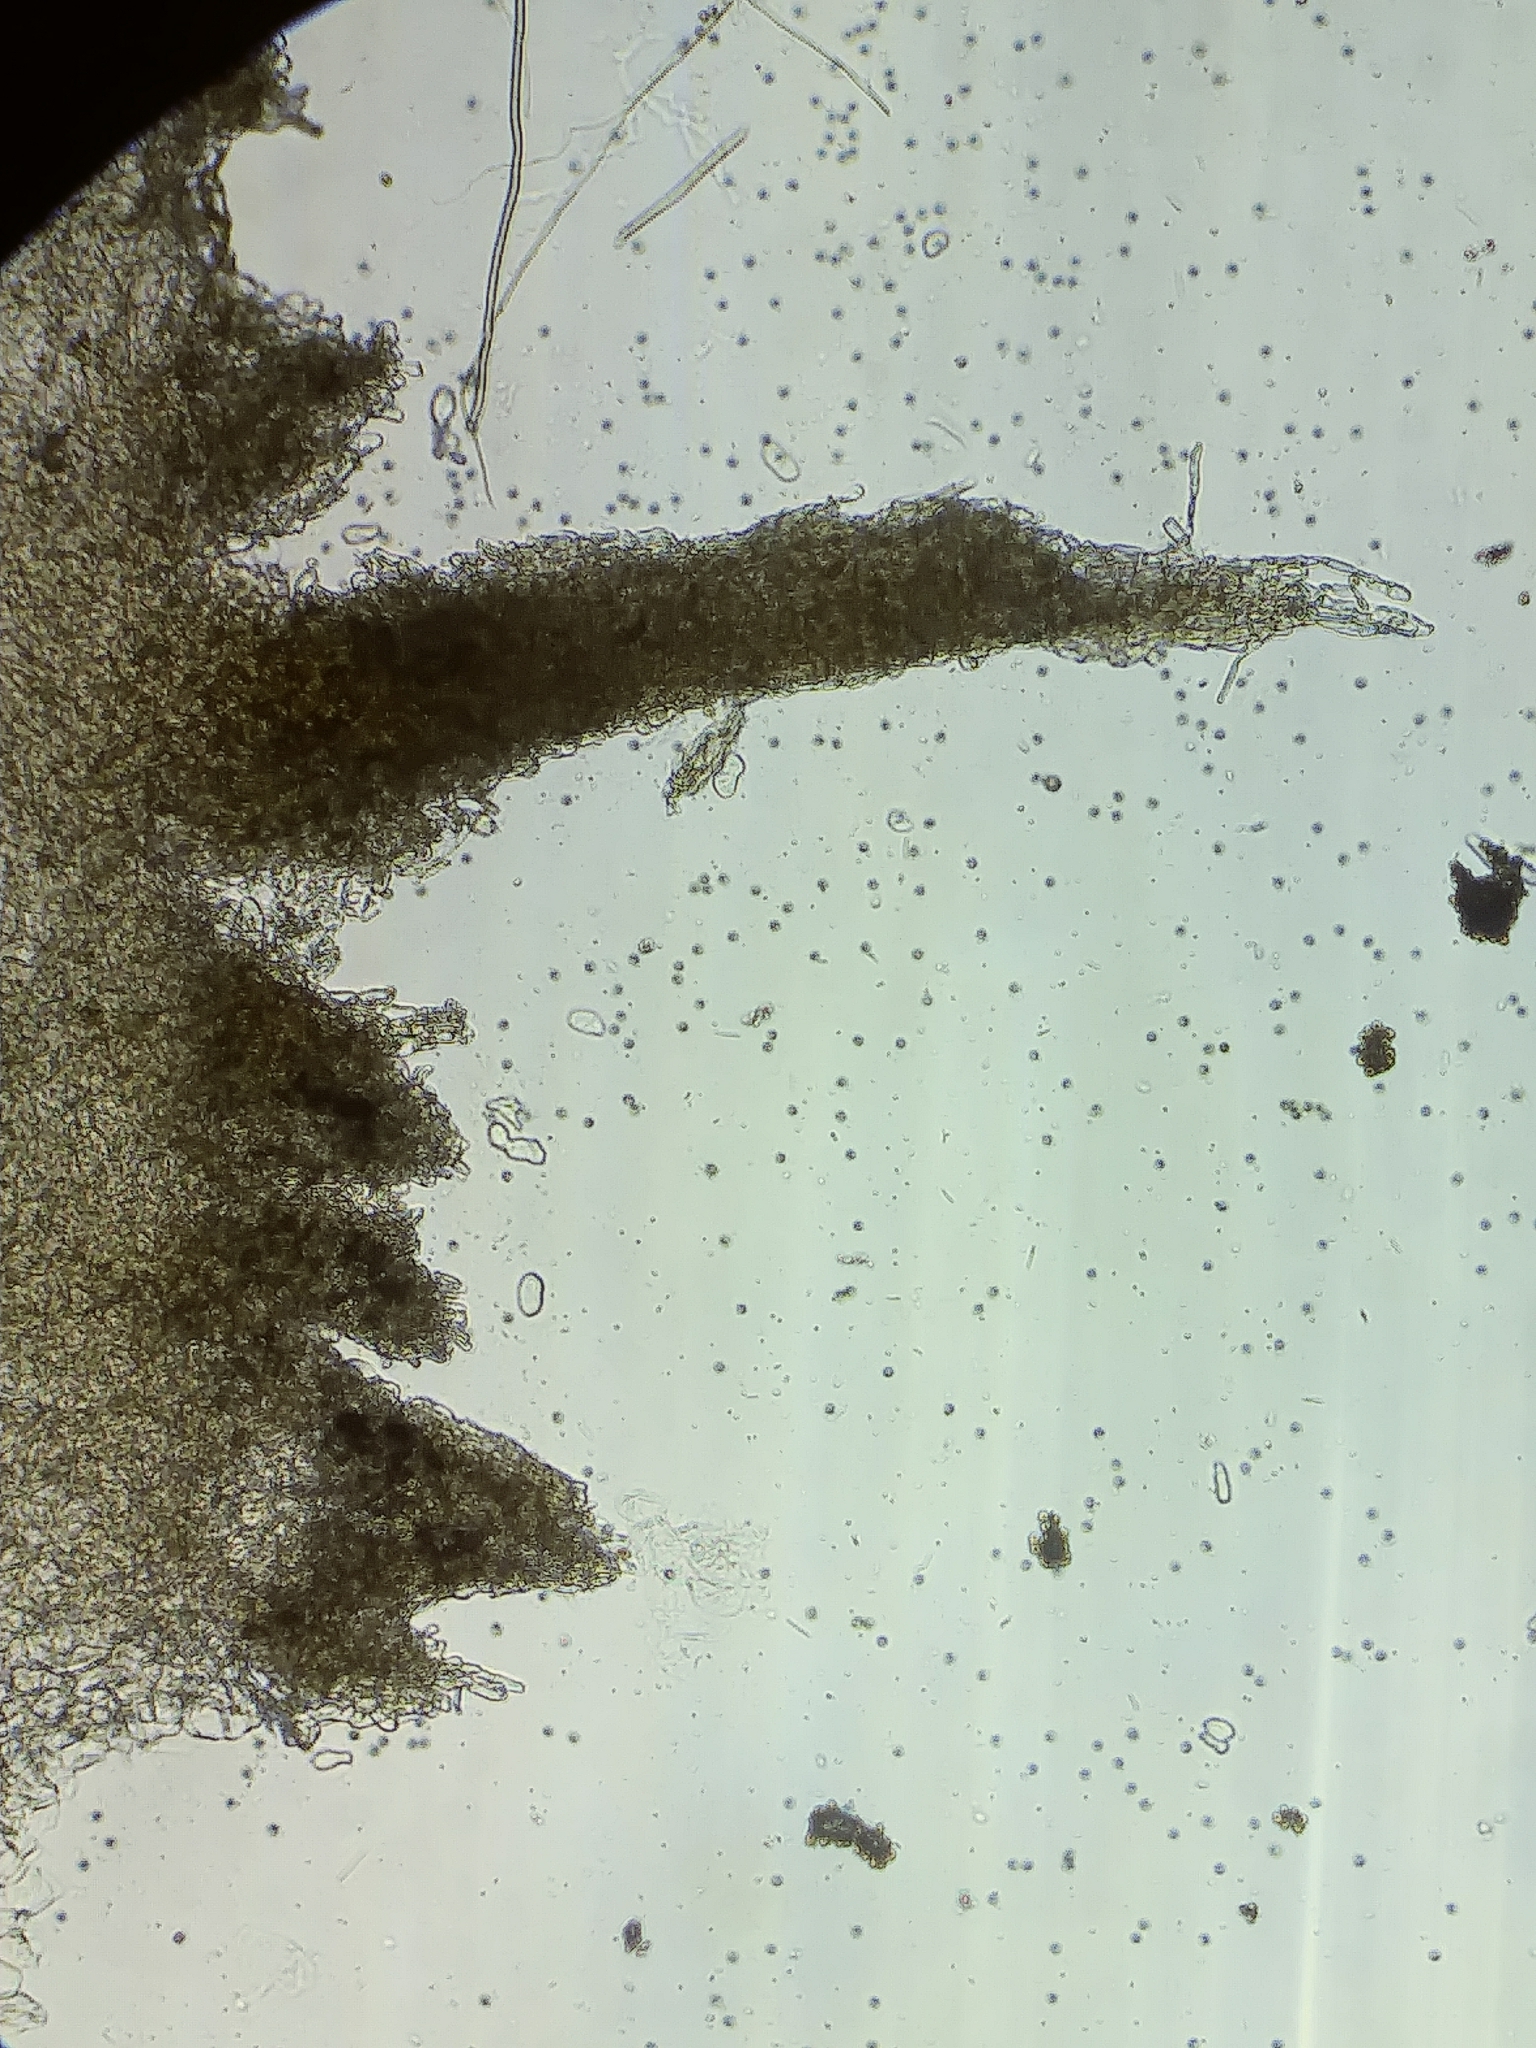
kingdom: Fungi
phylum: Basidiomycota
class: Agaricomycetes
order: Agaricales
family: Lycoperdaceae
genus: Lycoperdon
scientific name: Lycoperdon molle
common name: Soft puffball
